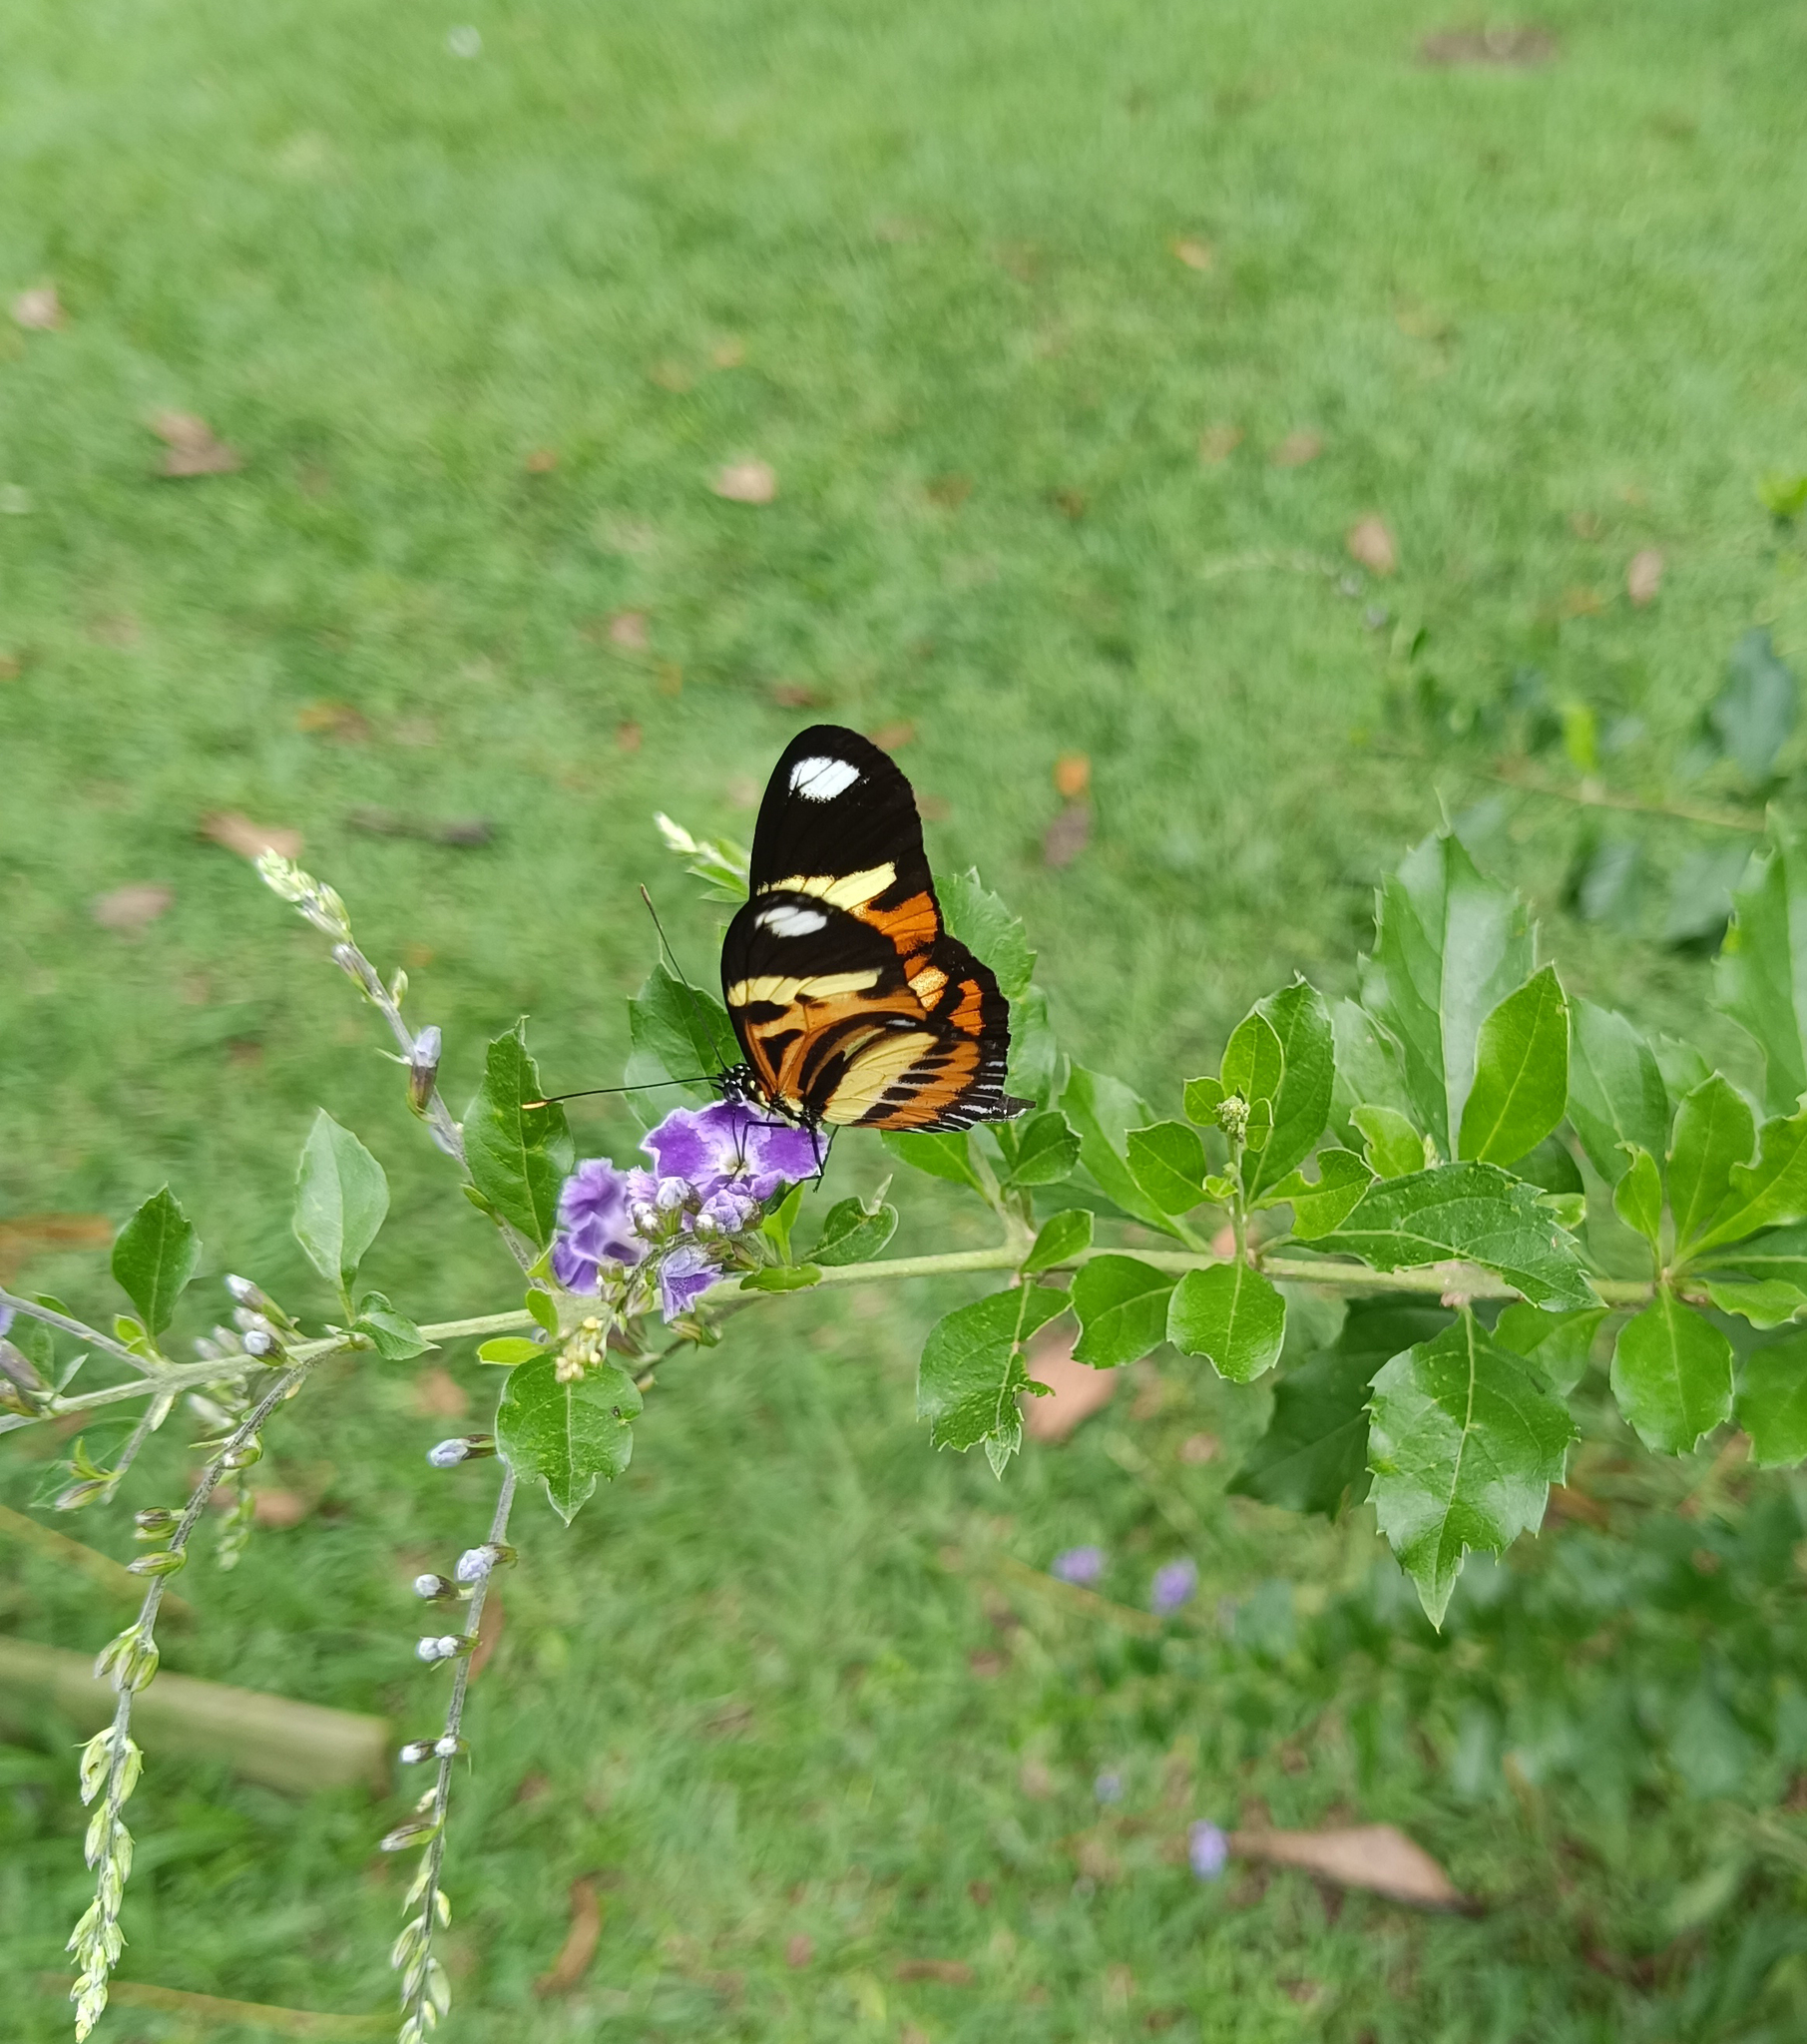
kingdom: Animalia
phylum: Arthropoda
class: Insecta
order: Lepidoptera
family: Nymphalidae
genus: Heliconius
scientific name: Heliconius ethilla
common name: Ethilia longwing
